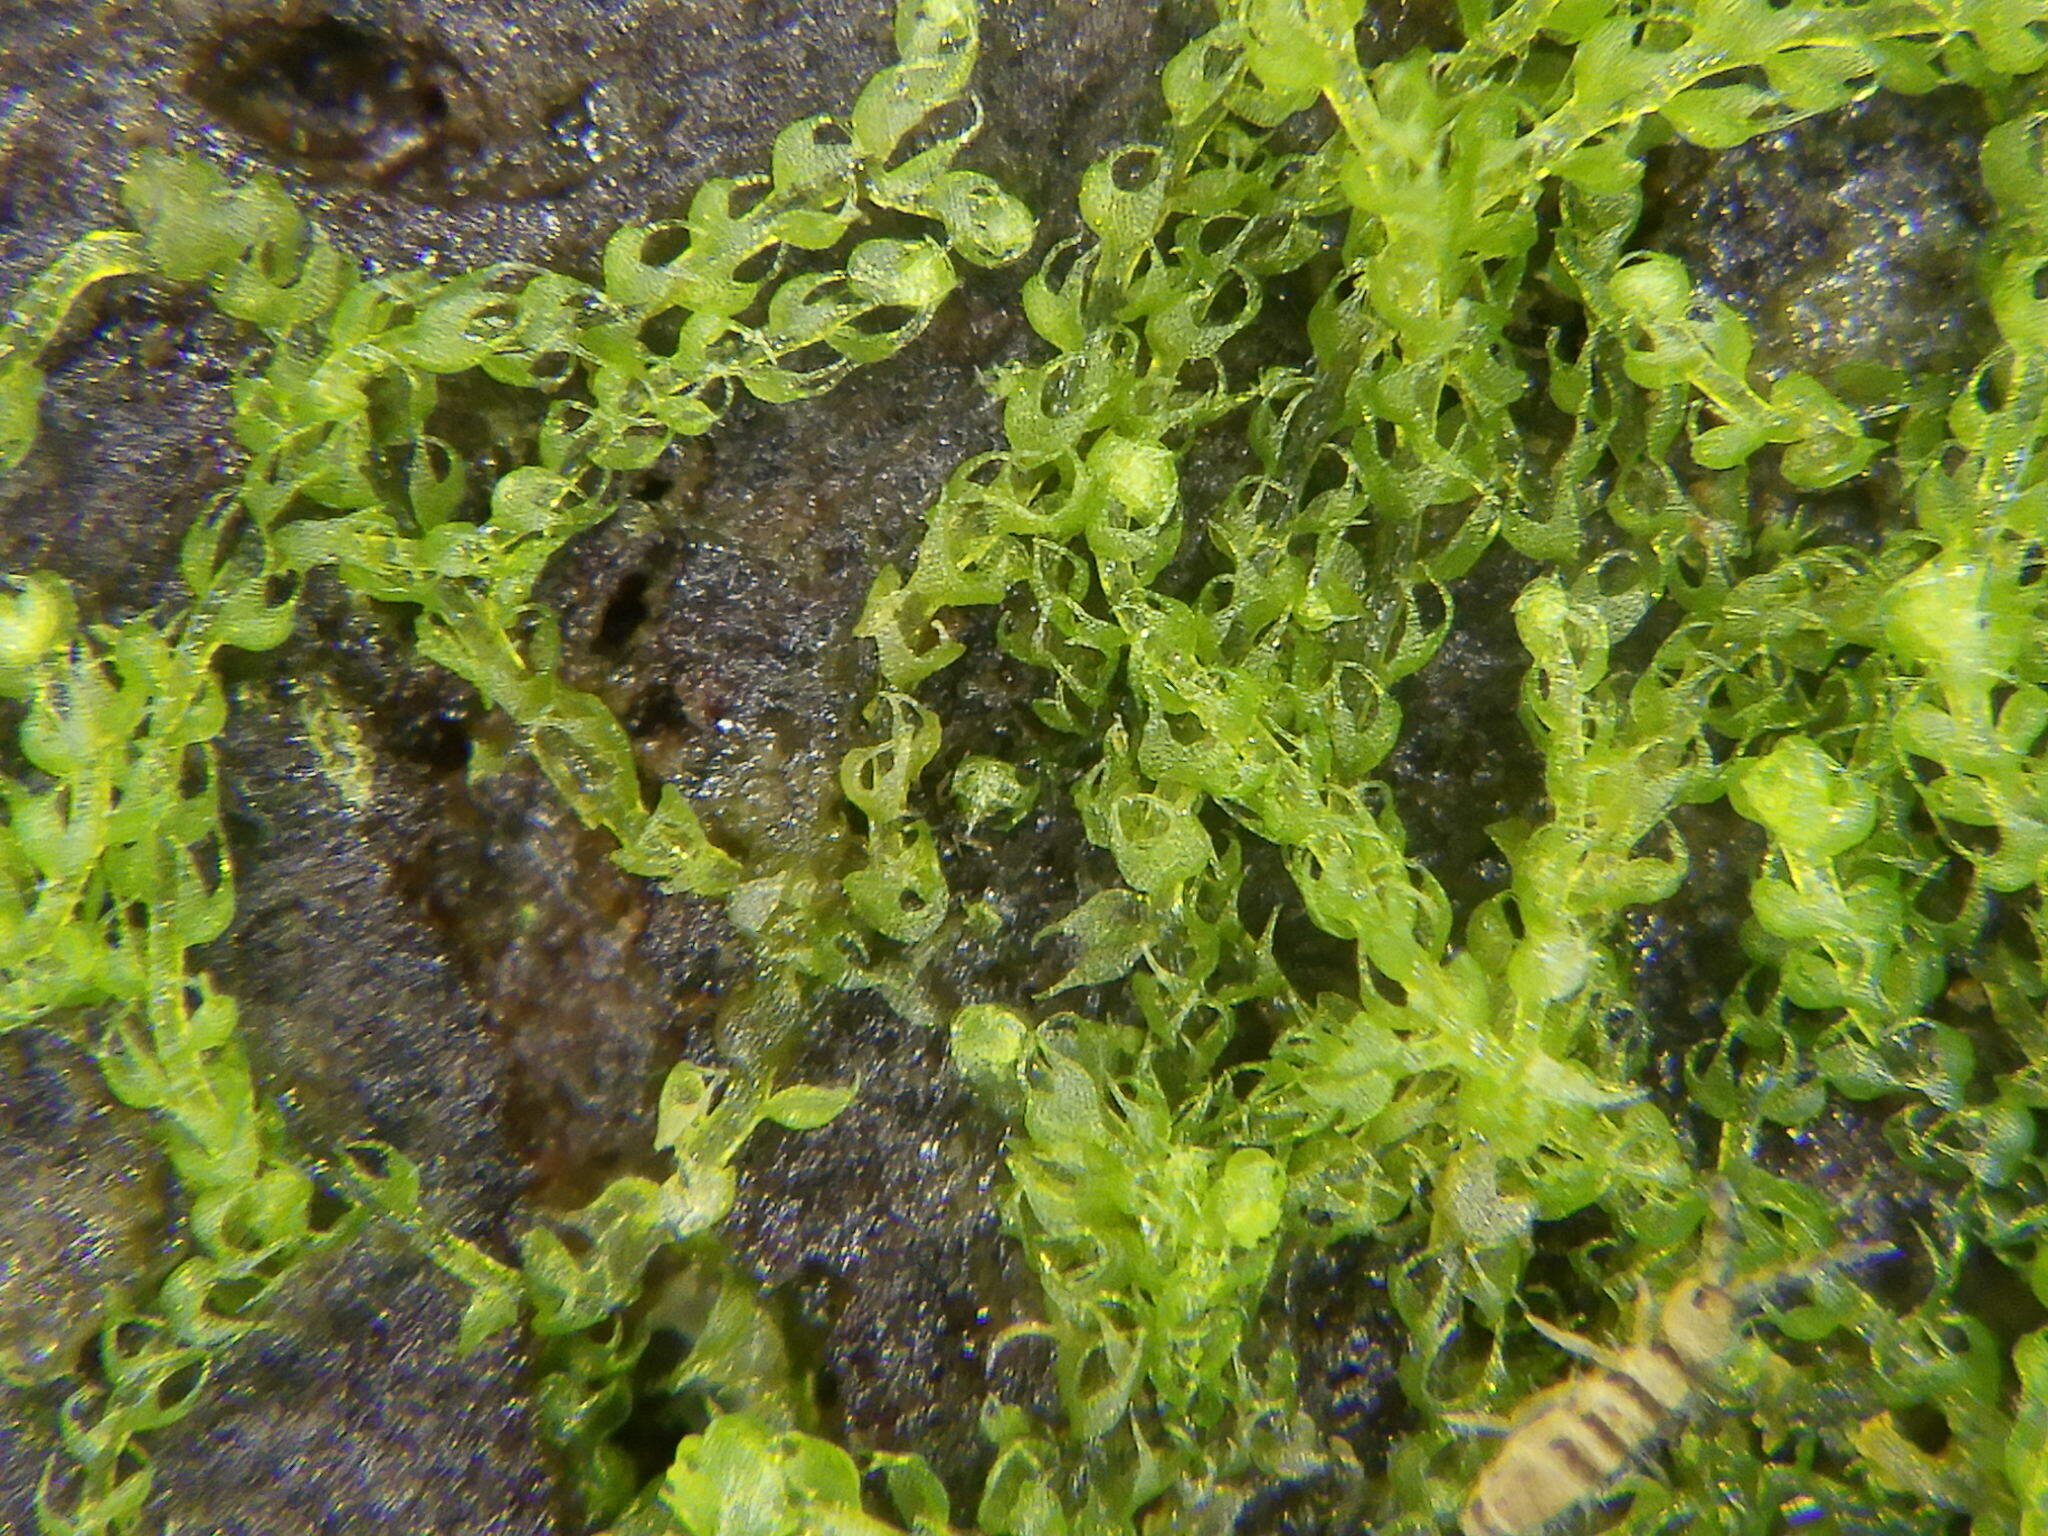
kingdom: Plantae
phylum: Marchantiophyta
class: Jungermanniopsida
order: Jungermanniales
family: Cephaloziaceae
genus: Nowellia
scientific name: Nowellia curvifolia
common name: Wood rustwort
